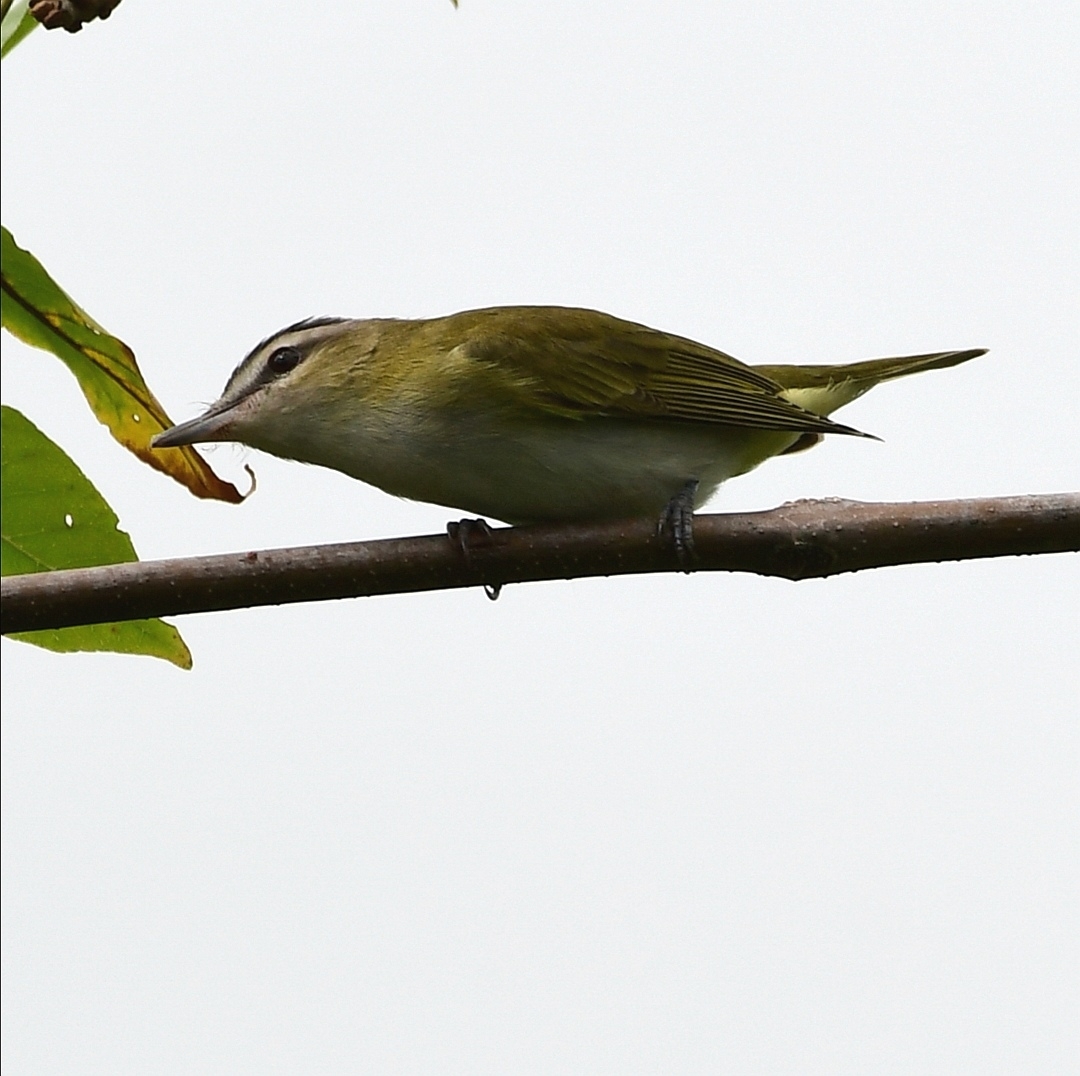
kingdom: Animalia
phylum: Chordata
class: Aves
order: Passeriformes
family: Vireonidae
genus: Vireo
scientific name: Vireo olivaceus
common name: Red-eyed vireo
